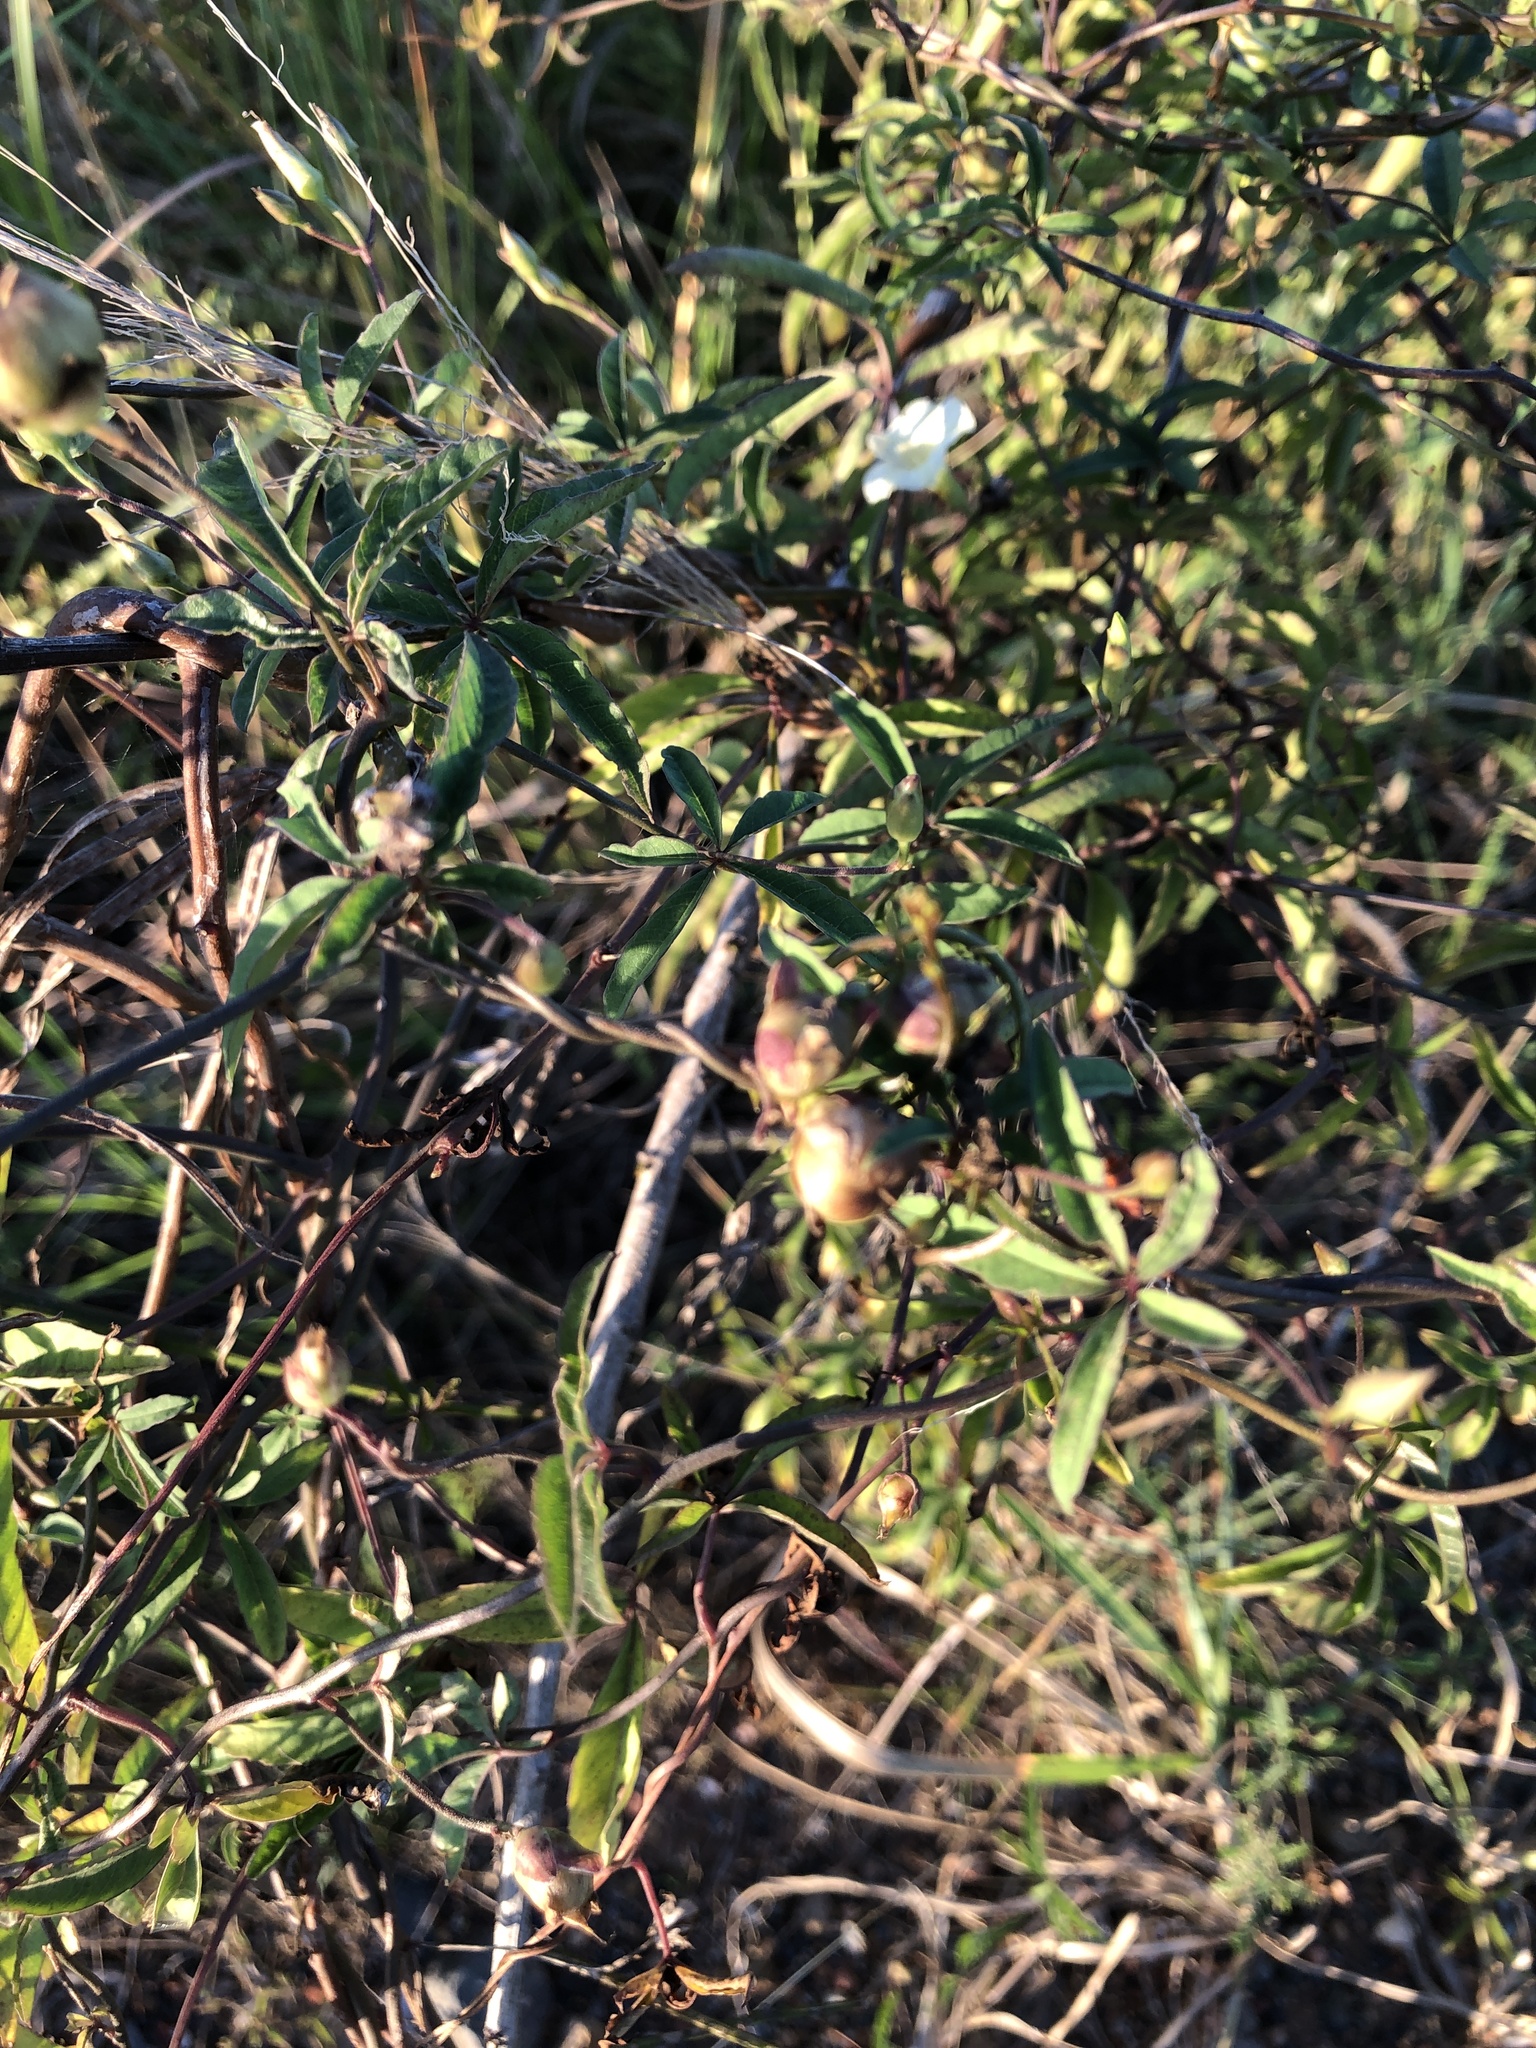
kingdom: Plantae
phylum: Tracheophyta
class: Magnoliopsida
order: Solanales
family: Convolvulaceae
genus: Distimake
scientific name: Distimake quinquefolius
